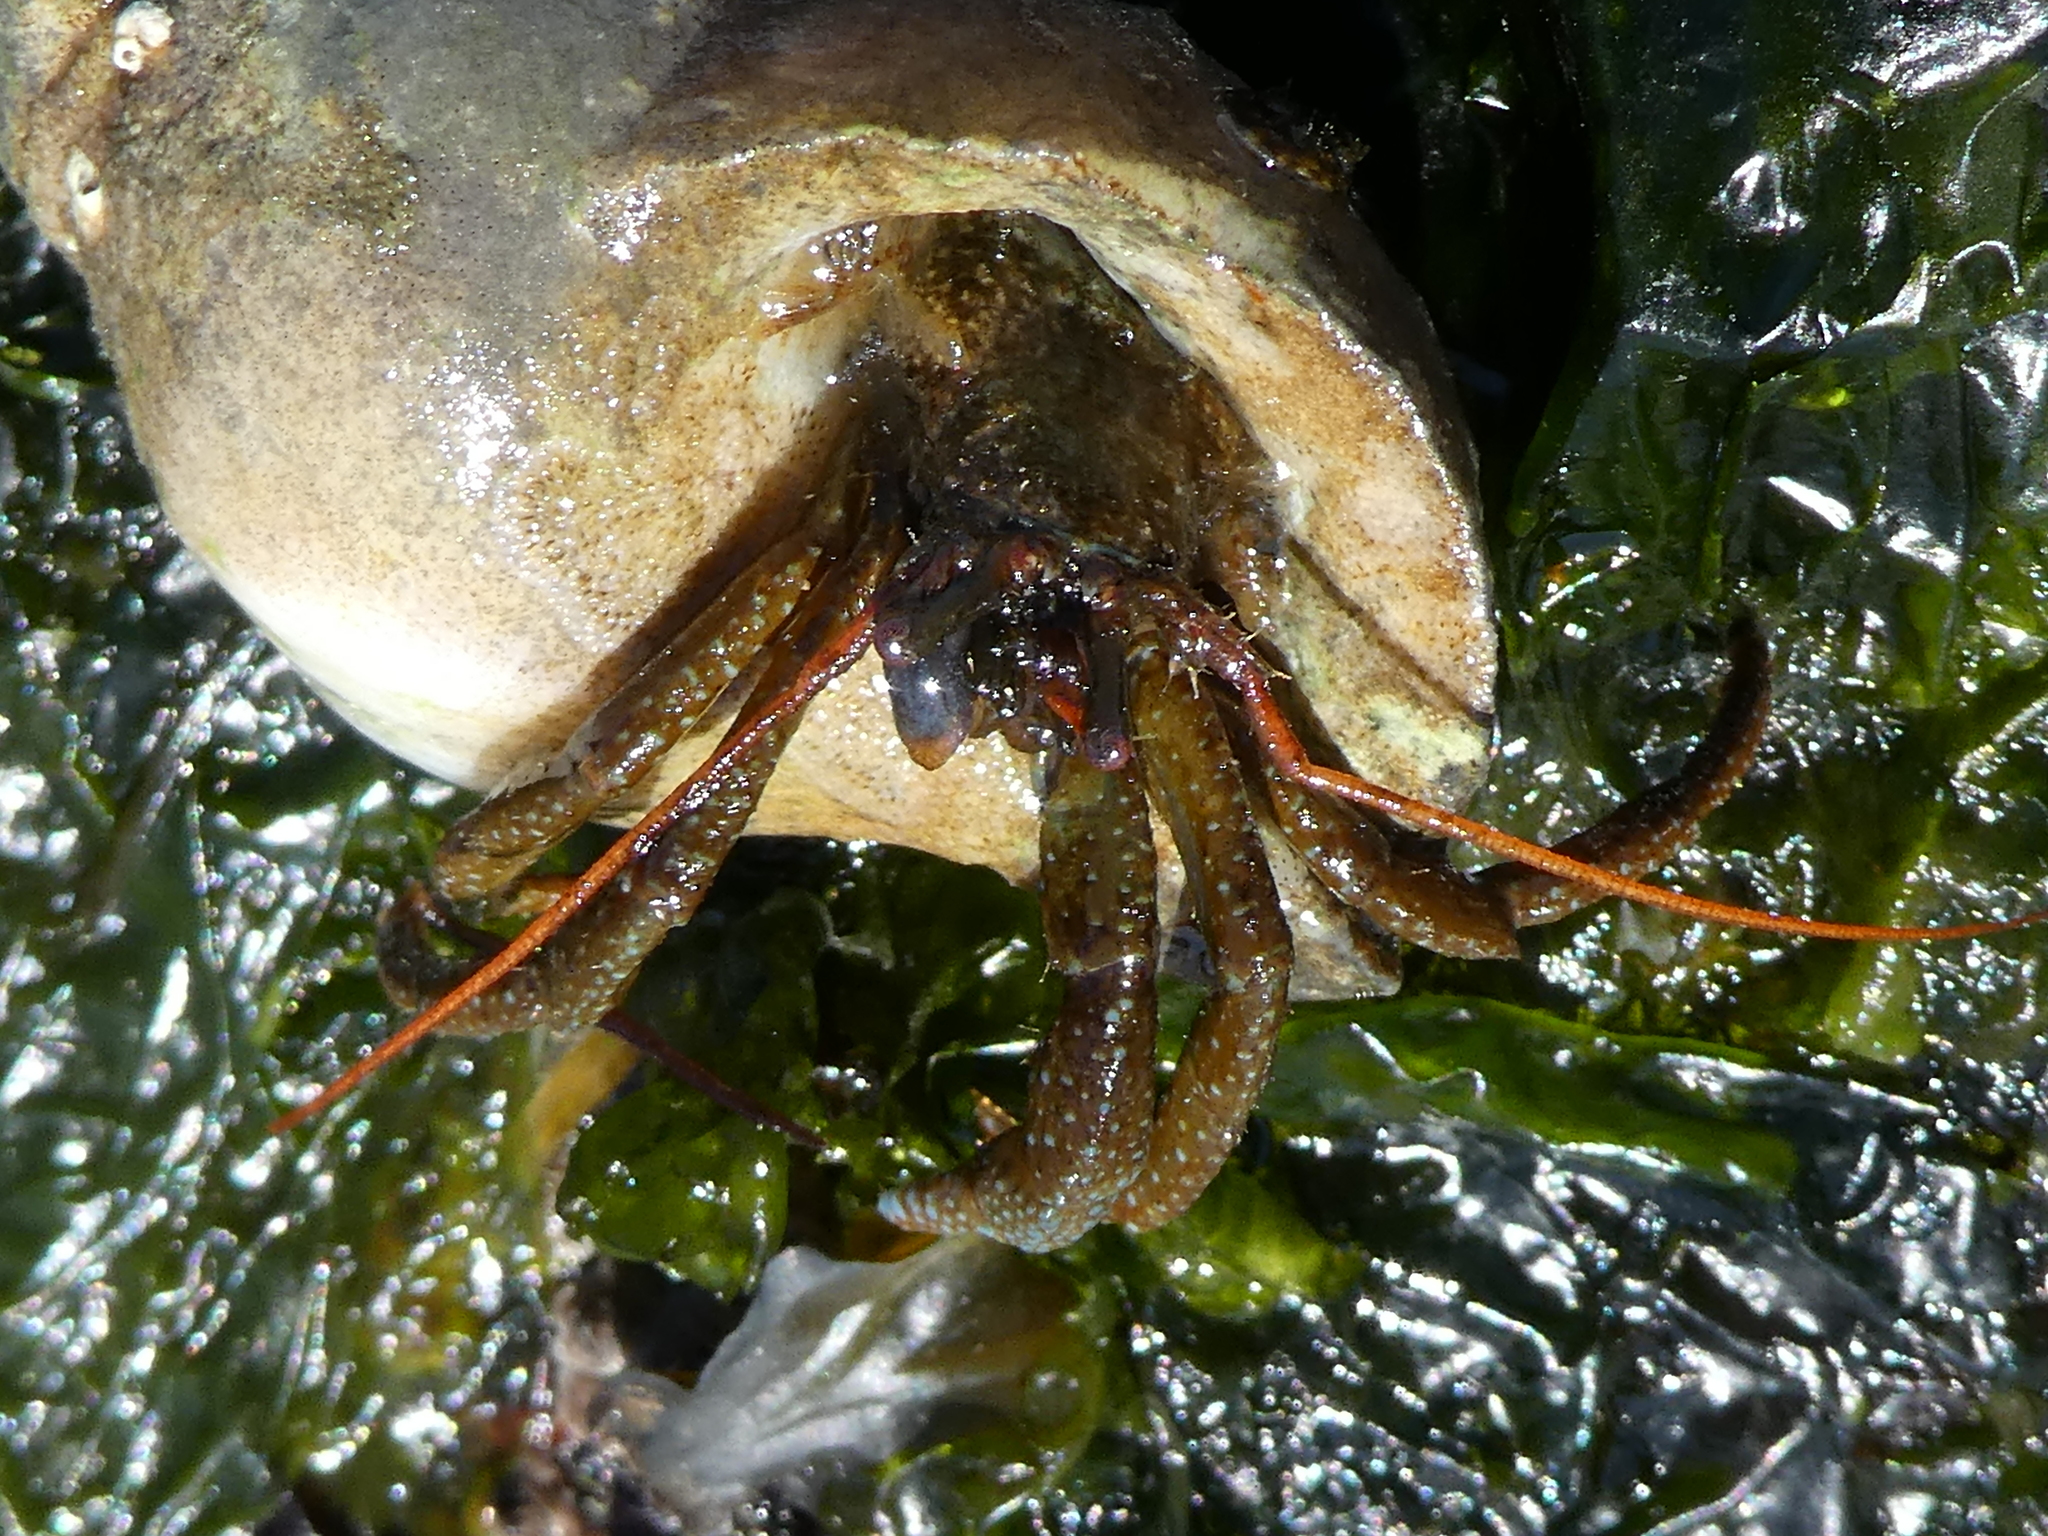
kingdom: Animalia
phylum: Arthropoda
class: Malacostraca
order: Decapoda
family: Paguridae
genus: Pagurus
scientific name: Pagurus granosimanus
